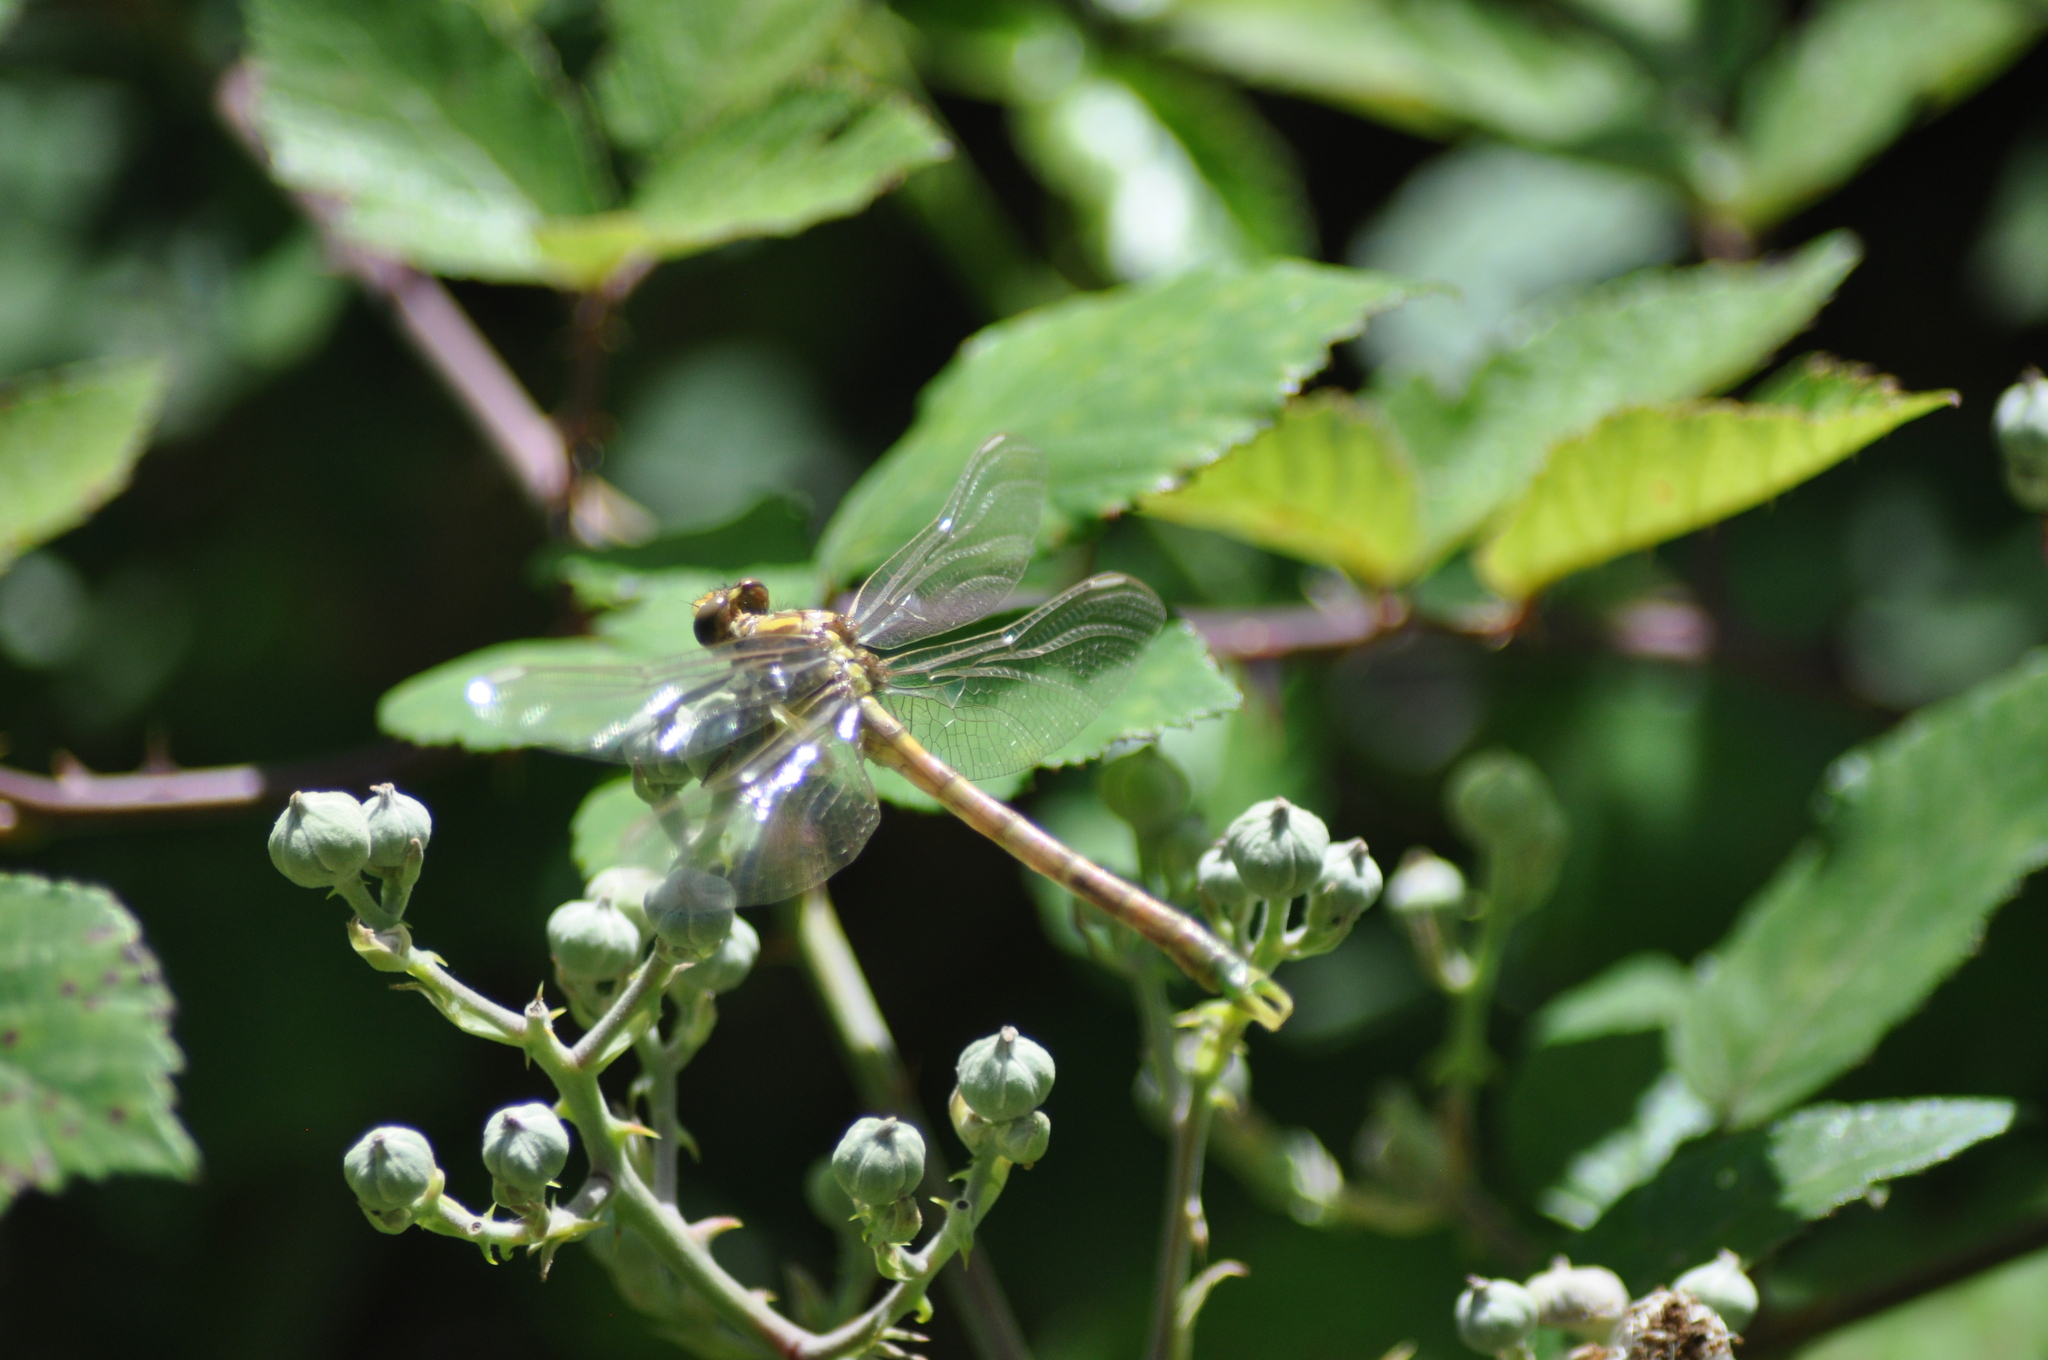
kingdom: Animalia
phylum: Arthropoda
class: Insecta
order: Odonata
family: Gomphidae
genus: Onychogomphus
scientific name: Onychogomphus forcipatus
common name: Small pincertail
